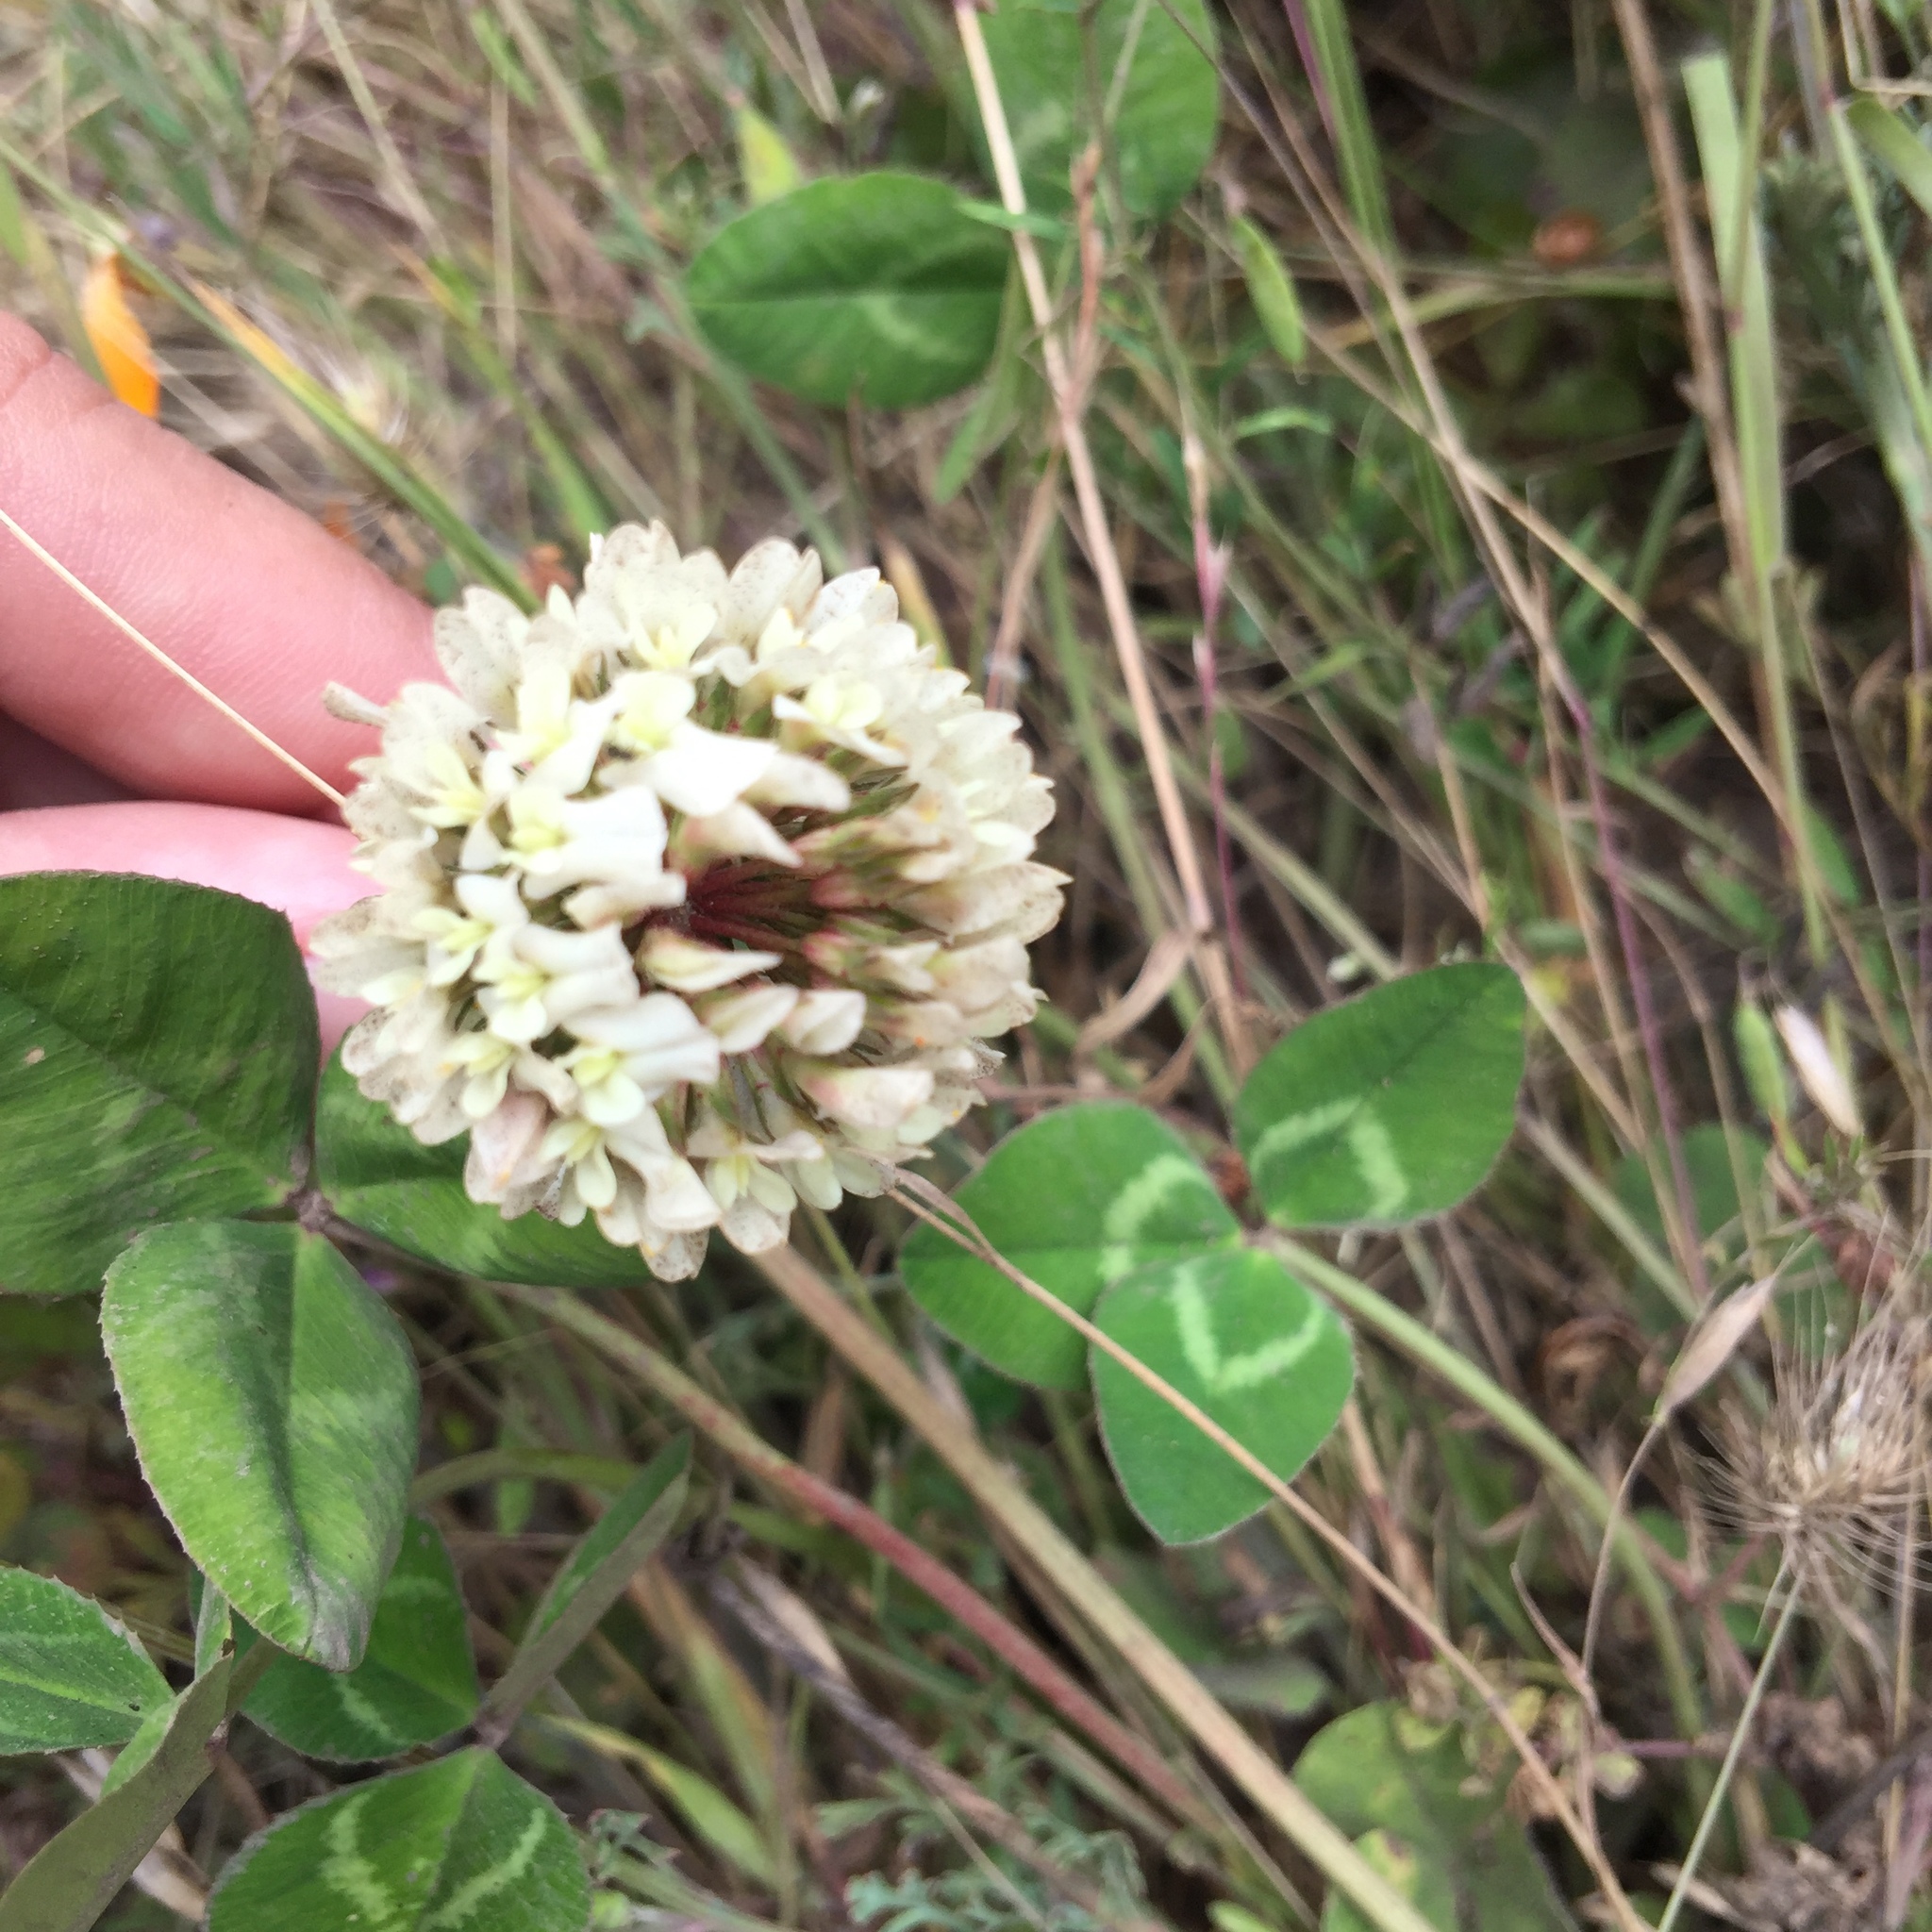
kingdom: Plantae
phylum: Tracheophyta
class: Magnoliopsida
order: Fabales
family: Fabaceae
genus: Trifolium
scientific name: Trifolium repens
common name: White clover
